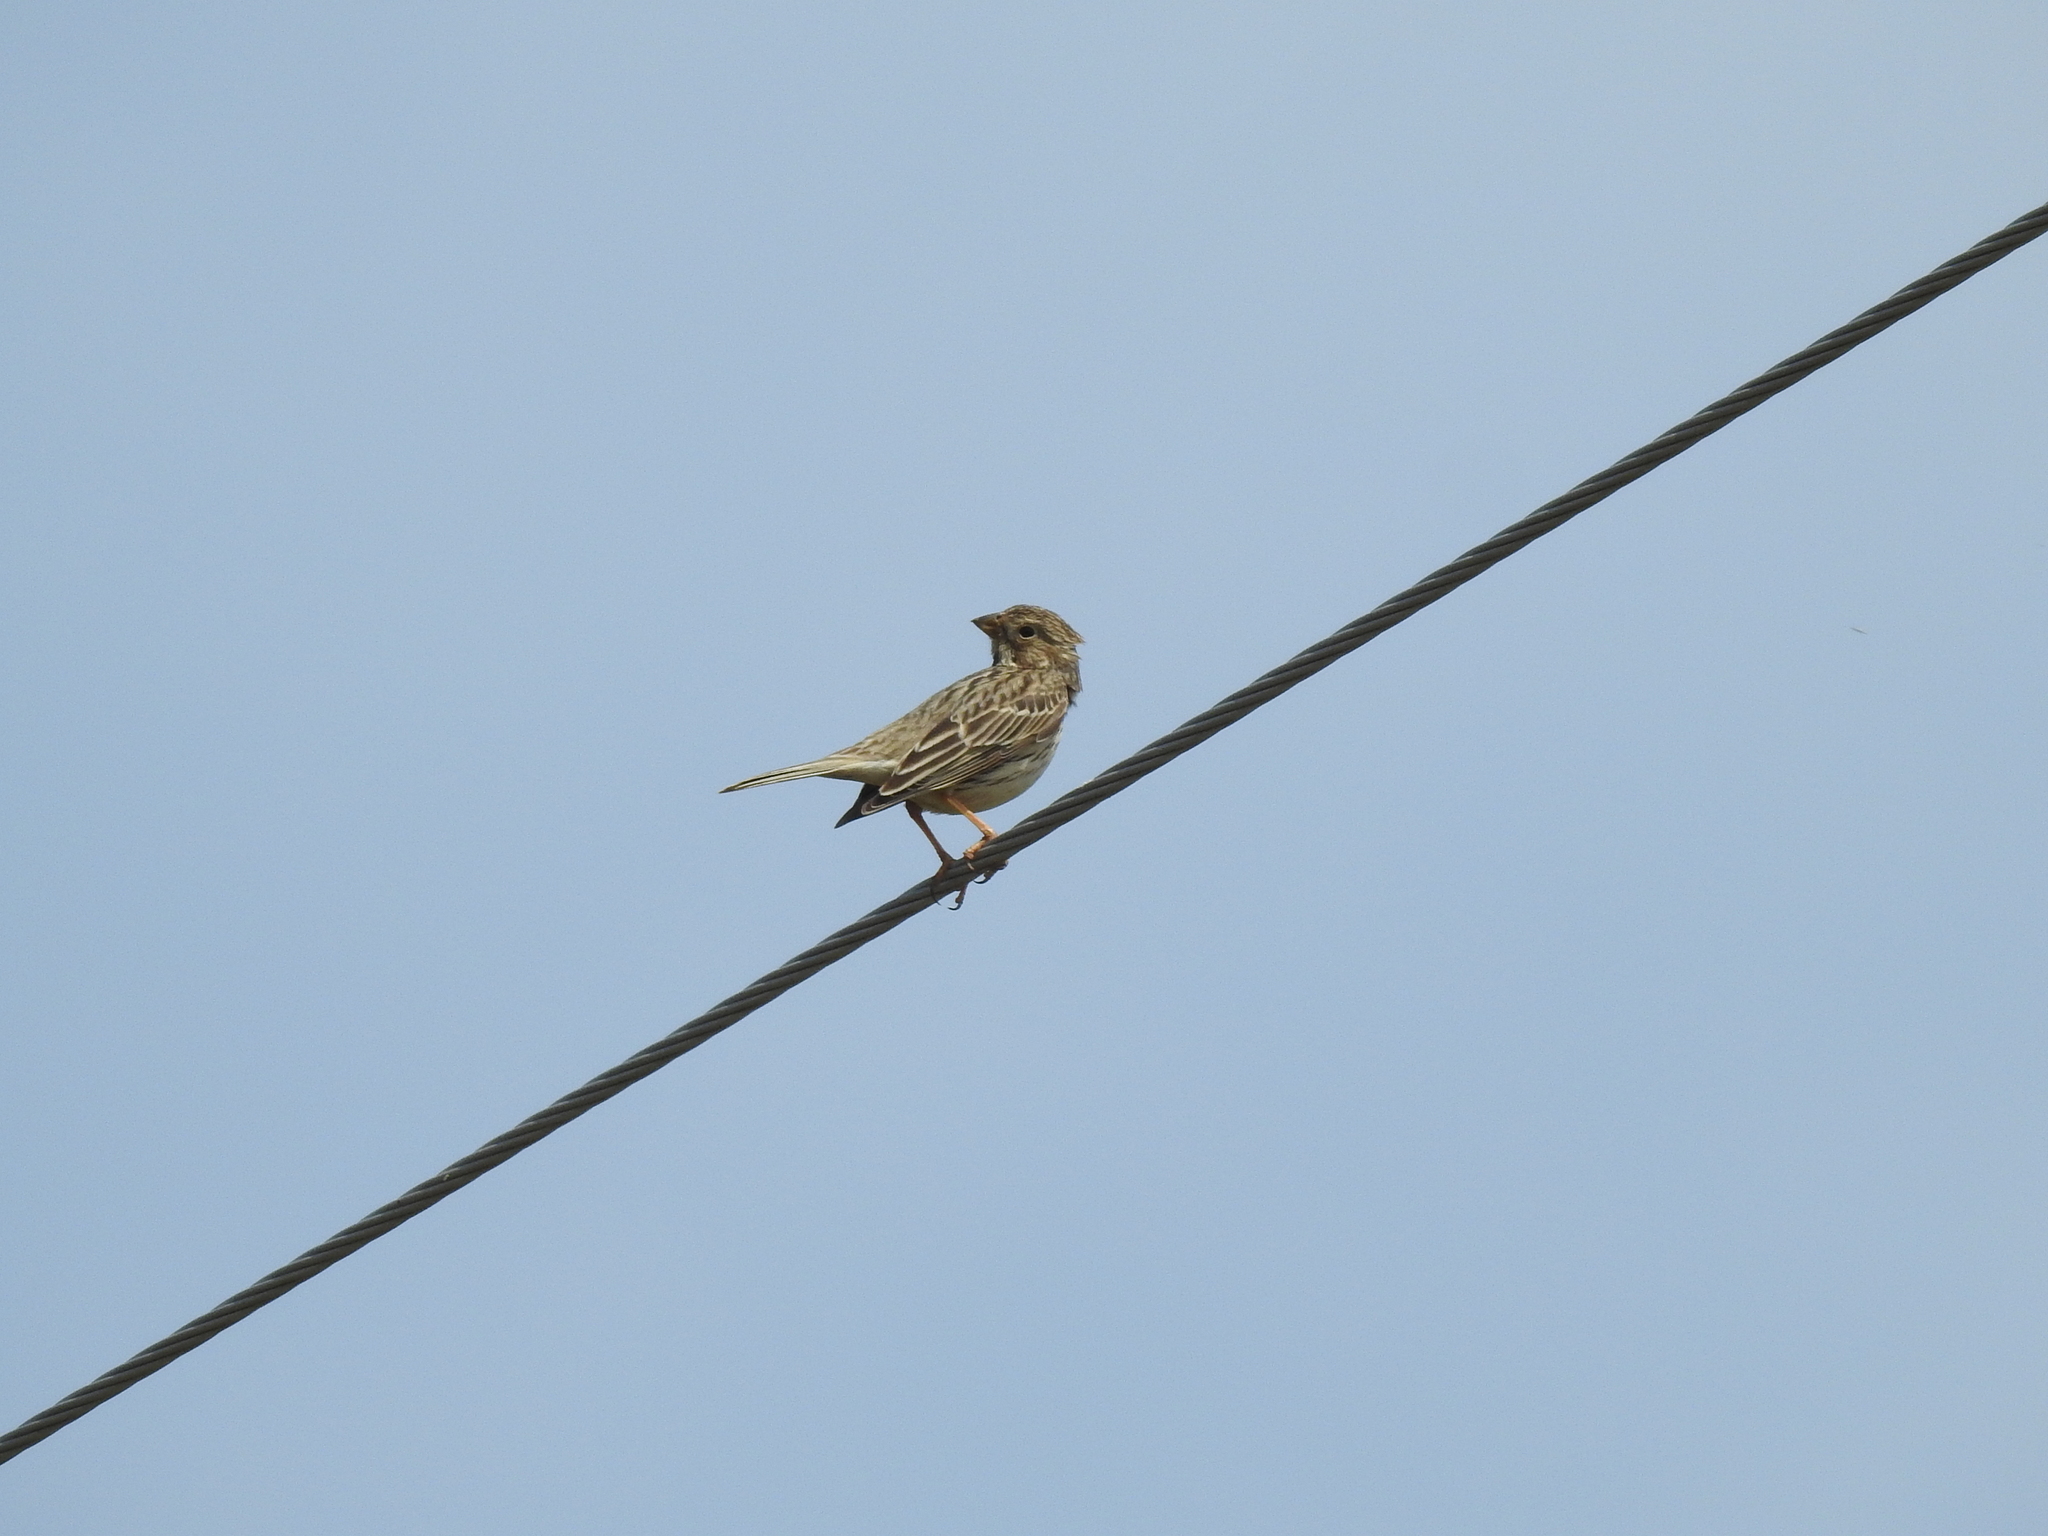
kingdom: Animalia
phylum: Chordata
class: Aves
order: Passeriformes
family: Emberizidae
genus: Emberiza
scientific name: Emberiza calandra
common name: Corn bunting
